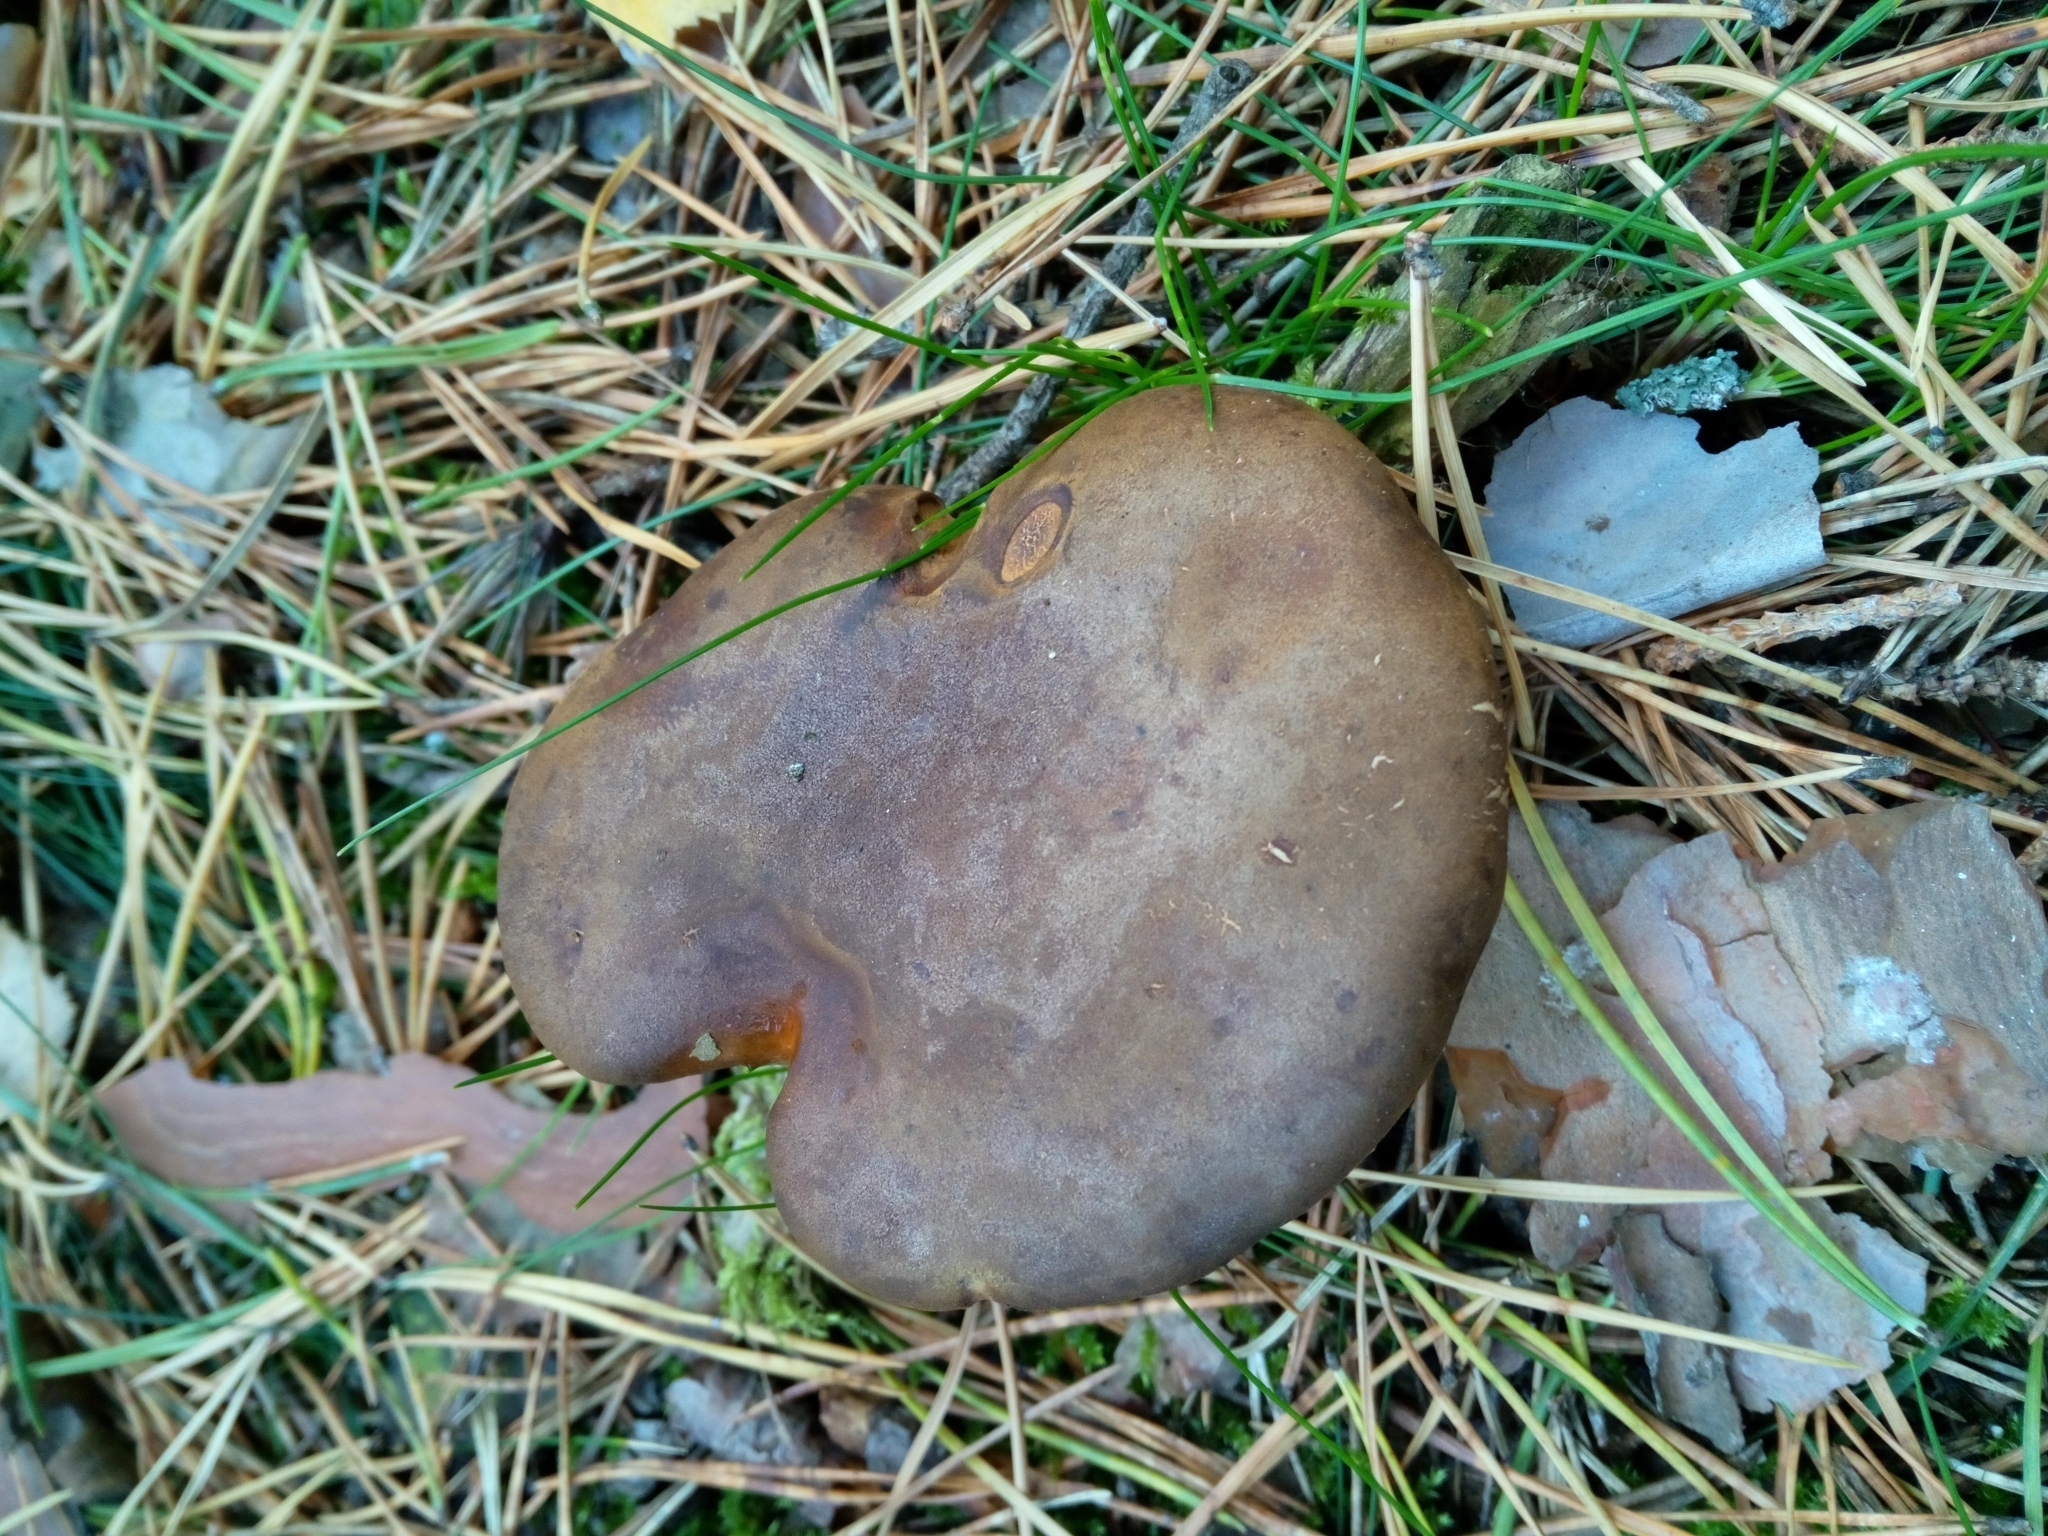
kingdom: Fungi
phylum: Basidiomycota
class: Agaricomycetes
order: Boletales
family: Boletaceae
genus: Imleria
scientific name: Imleria badia
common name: Bay bolete
